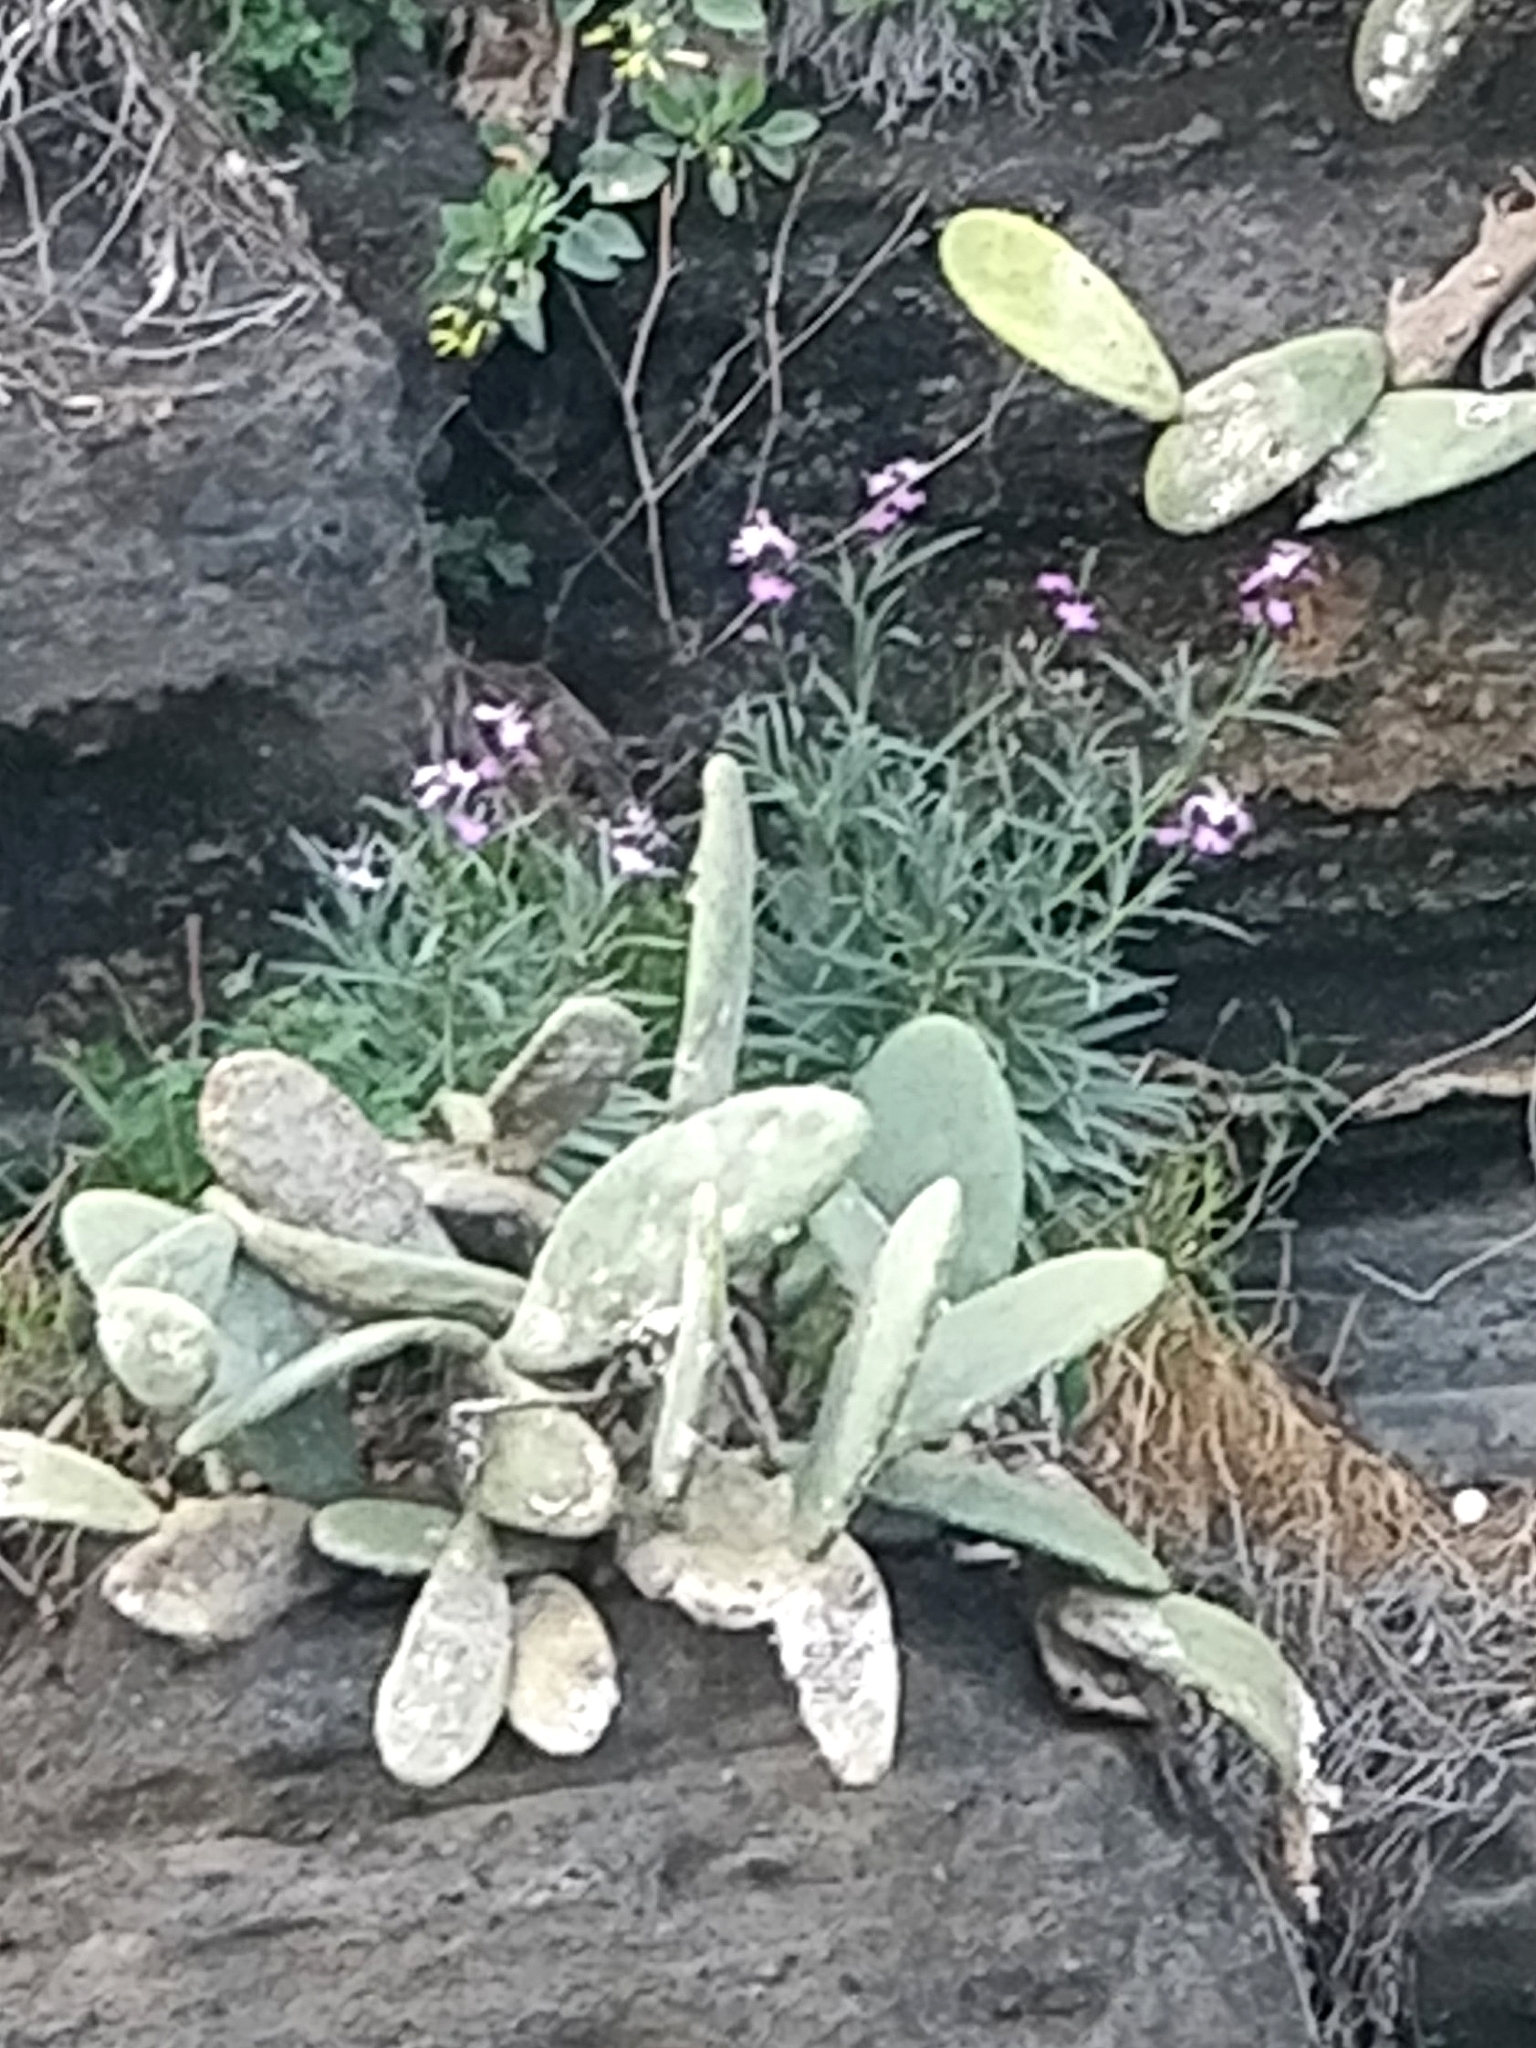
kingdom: Plantae
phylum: Tracheophyta
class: Magnoliopsida
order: Brassicales
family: Brassicaceae
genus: Matthiola
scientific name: Matthiola maderensis
